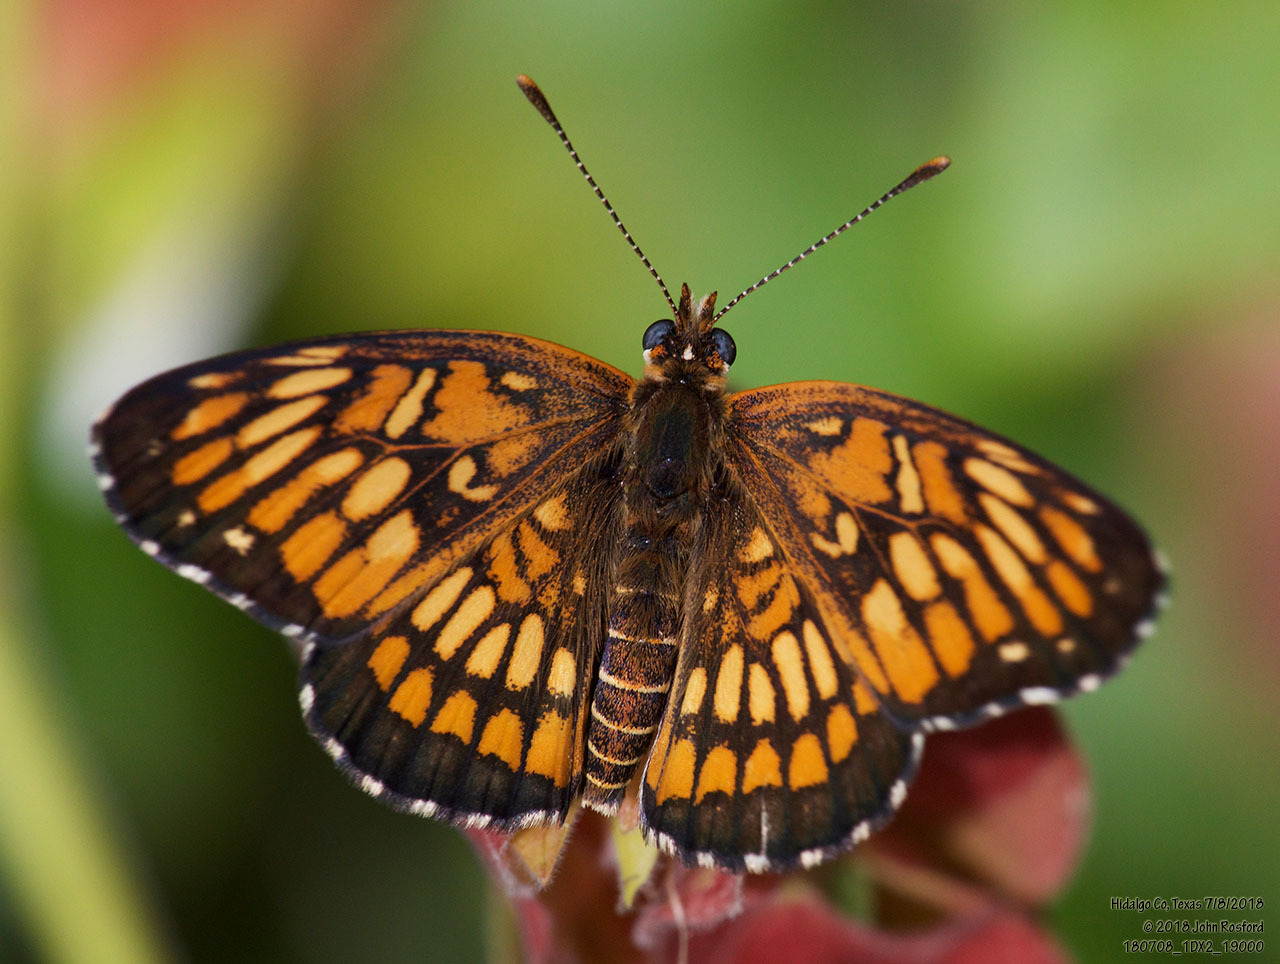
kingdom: Animalia
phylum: Arthropoda
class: Insecta
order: Lepidoptera
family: Nymphalidae
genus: Thessalia
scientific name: Thessalia theona
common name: Nymphalid moth
